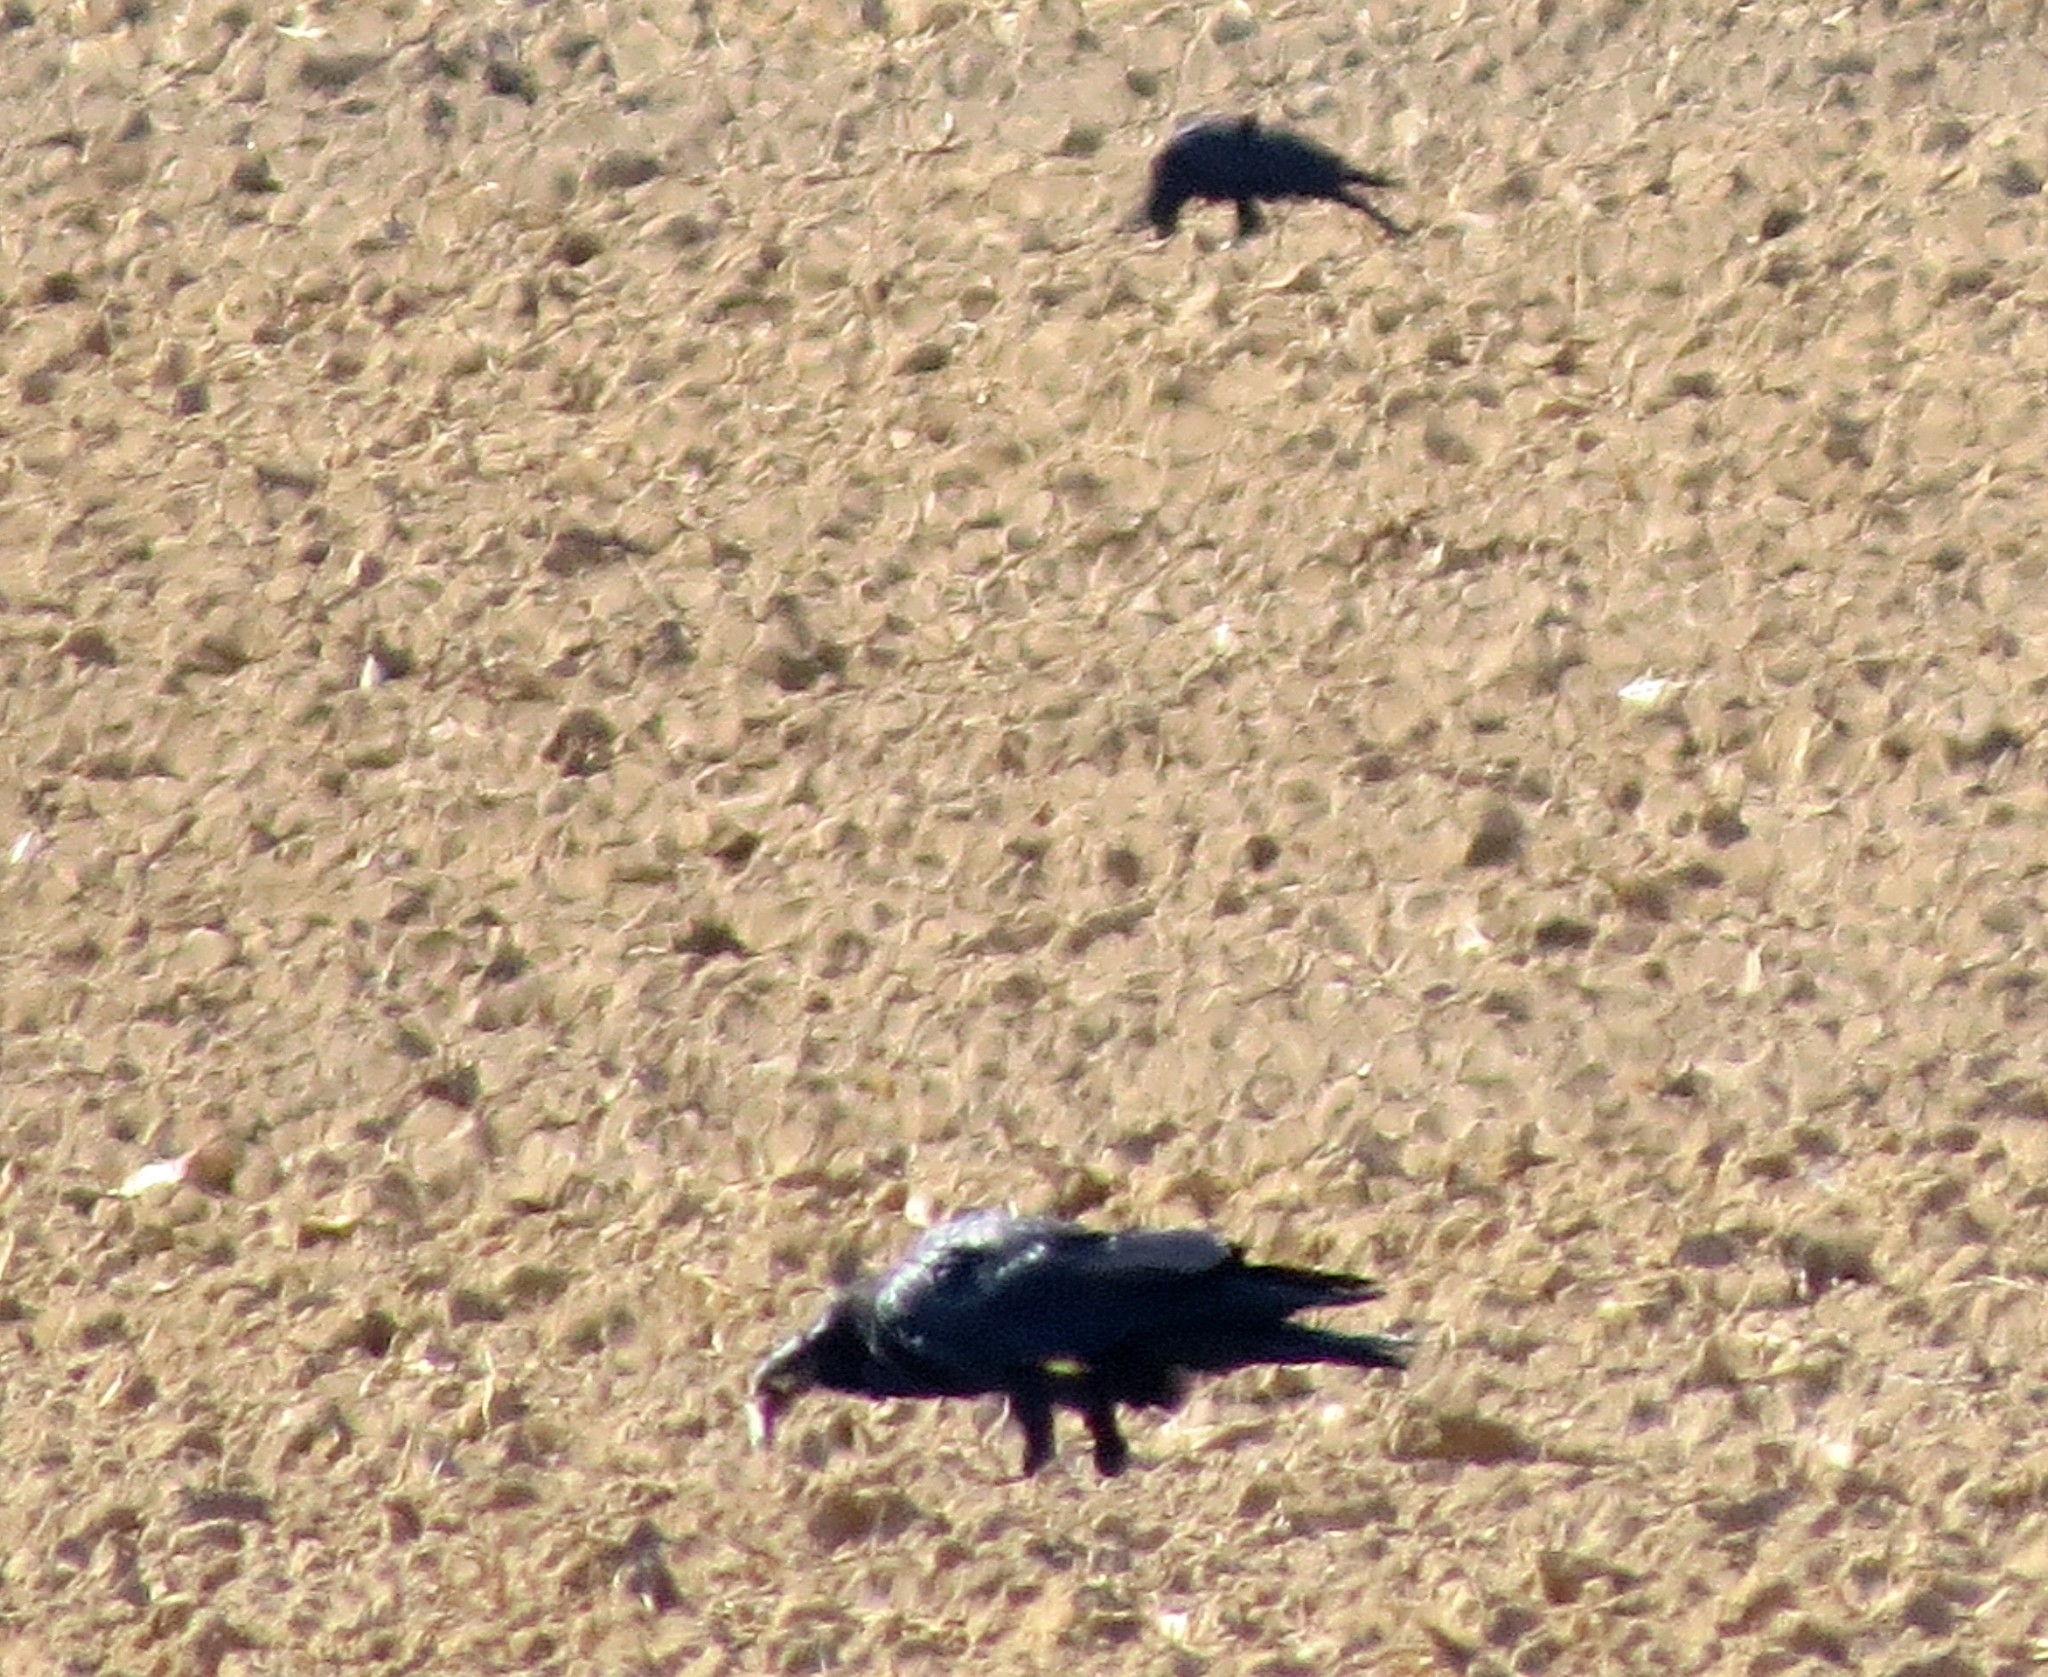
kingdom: Animalia
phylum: Chordata
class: Aves
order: Passeriformes
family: Corvidae
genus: Corvus
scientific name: Corvus corone
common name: Carrion crow
